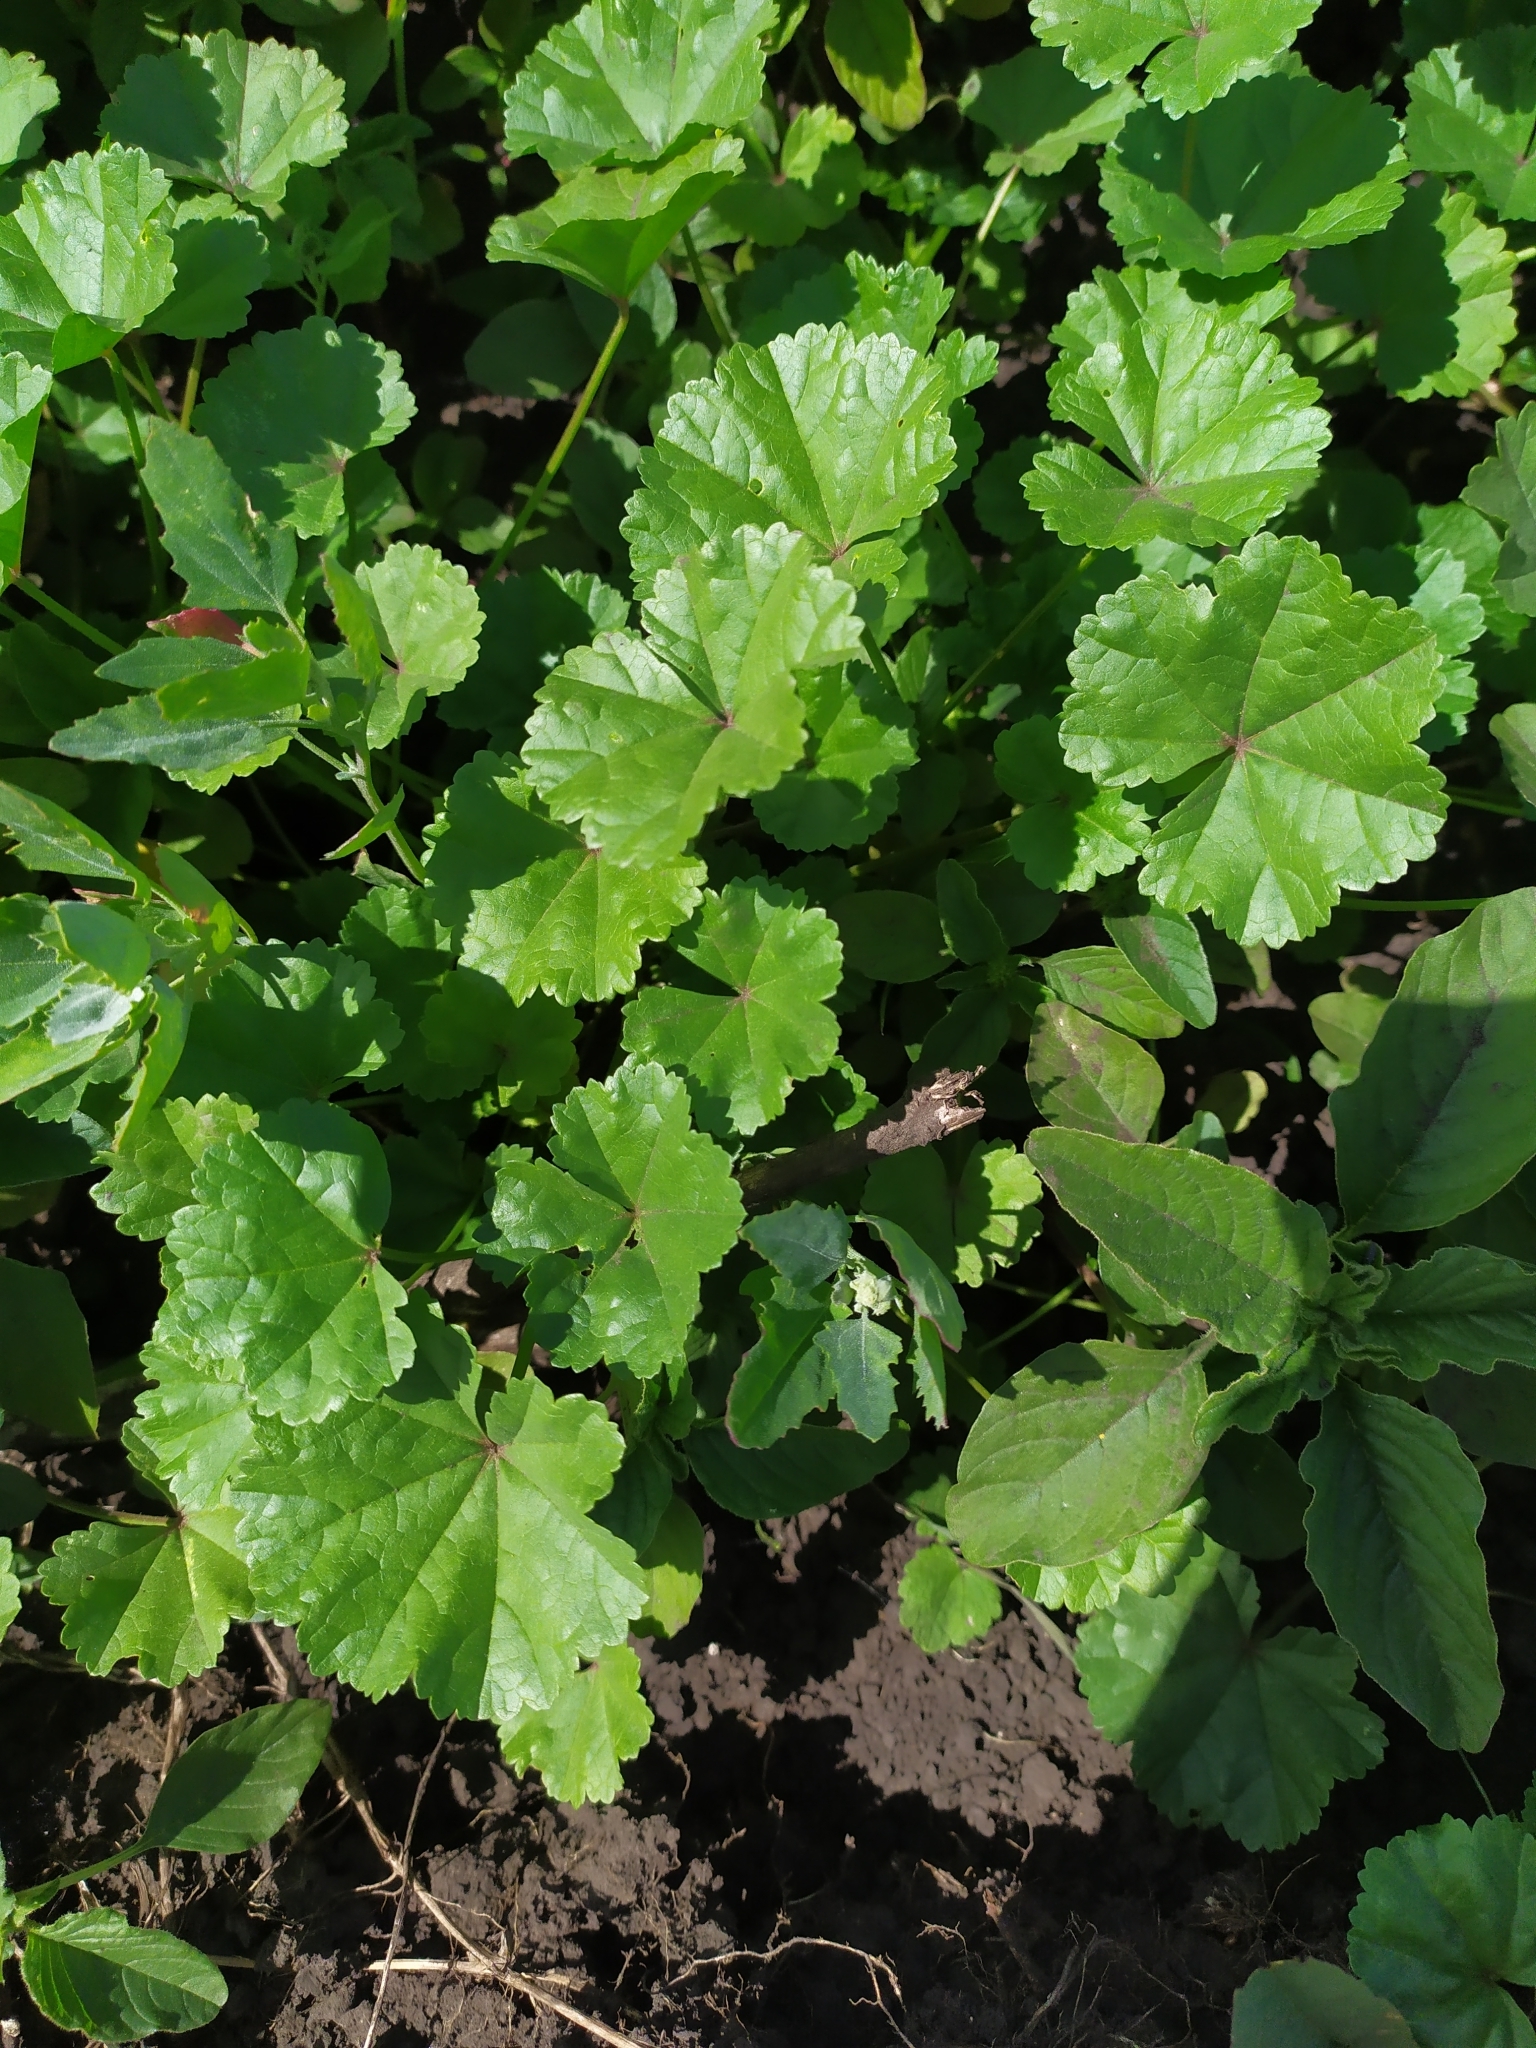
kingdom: Plantae
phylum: Tracheophyta
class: Magnoliopsida
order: Malvales
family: Malvaceae
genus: Malva
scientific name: Malva pusilla
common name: Small mallow
